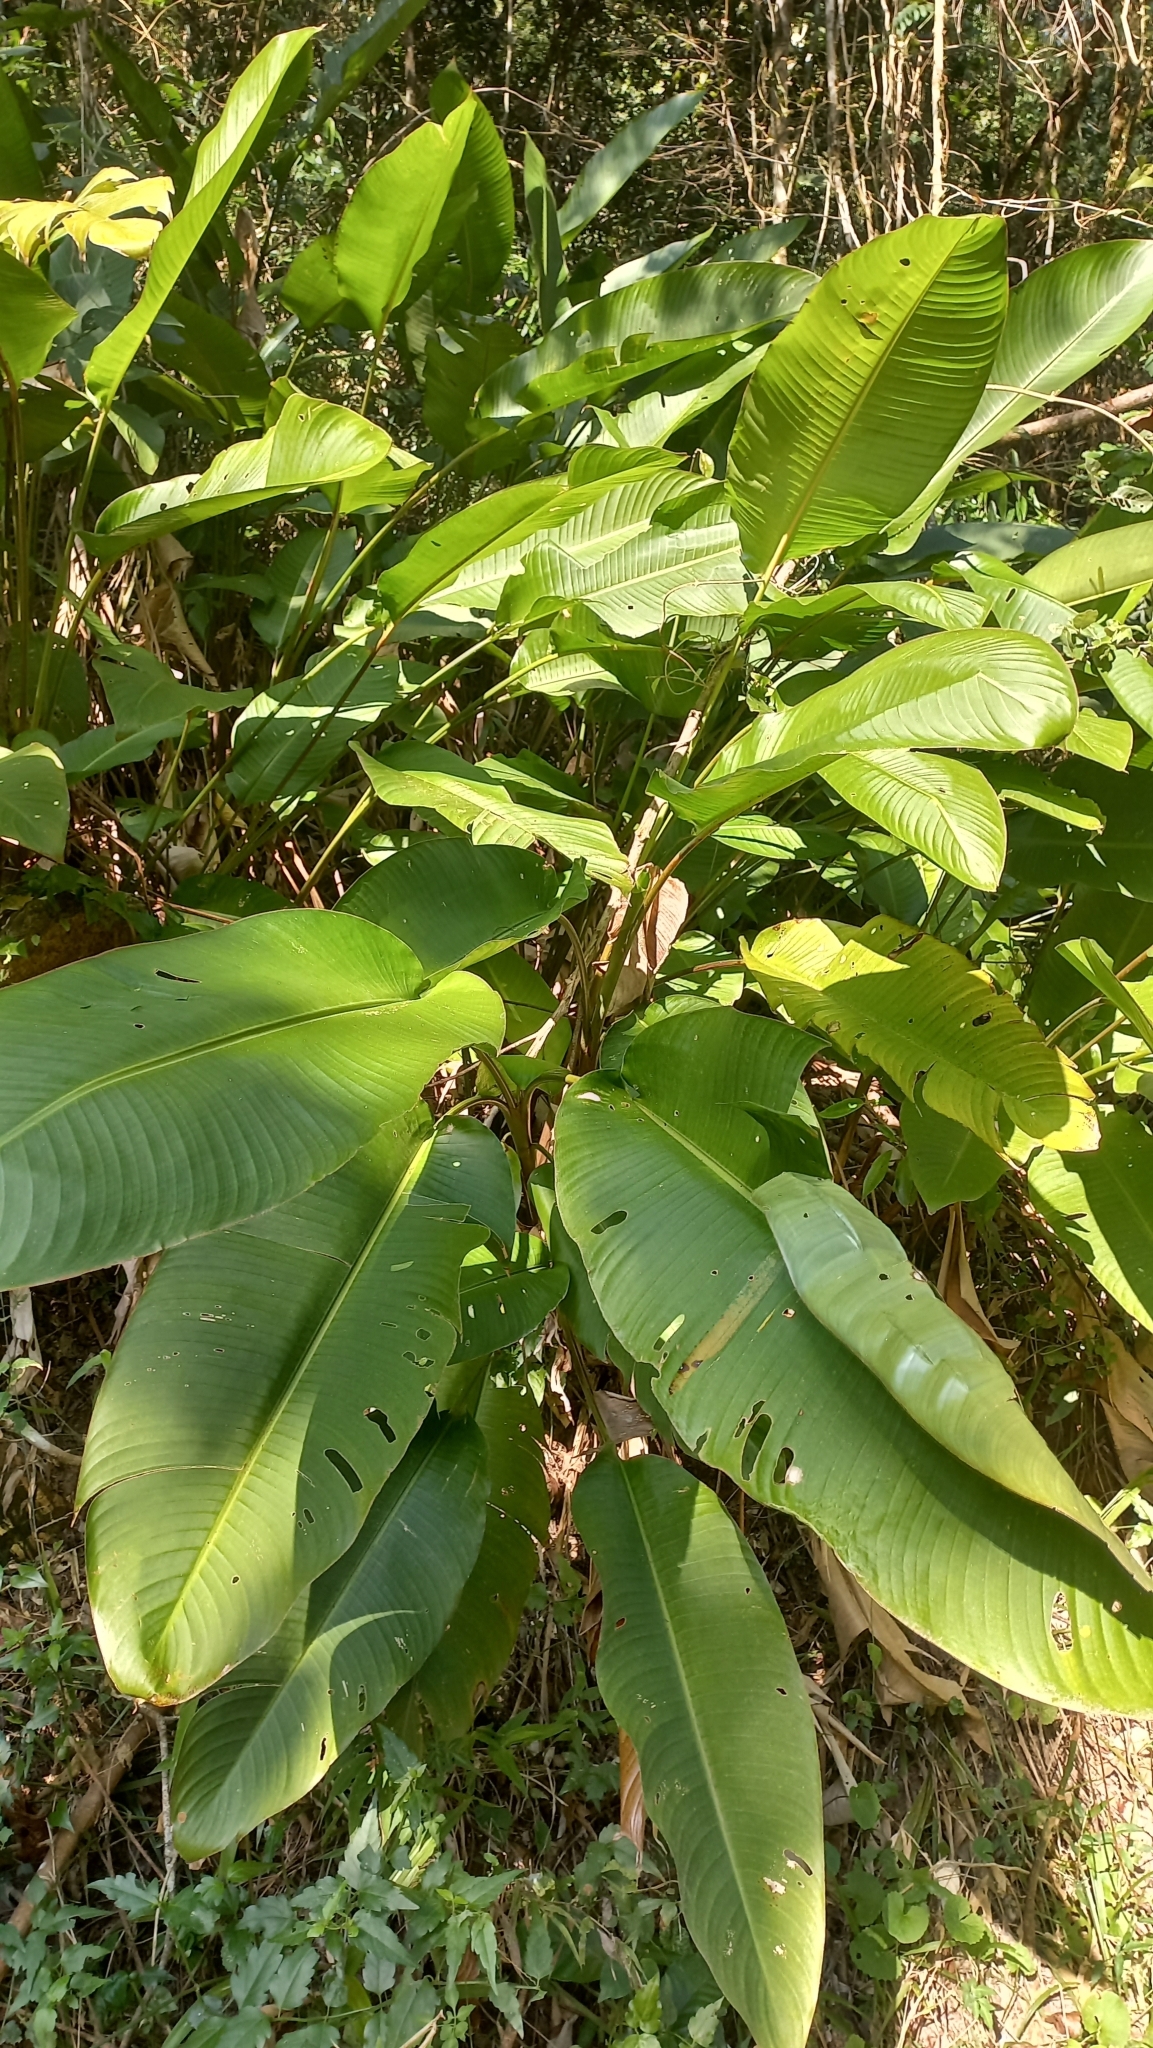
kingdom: Plantae
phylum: Tracheophyta
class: Liliopsida
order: Zingiberales
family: Heliconiaceae
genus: Heliconia
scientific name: Heliconia farinosa
